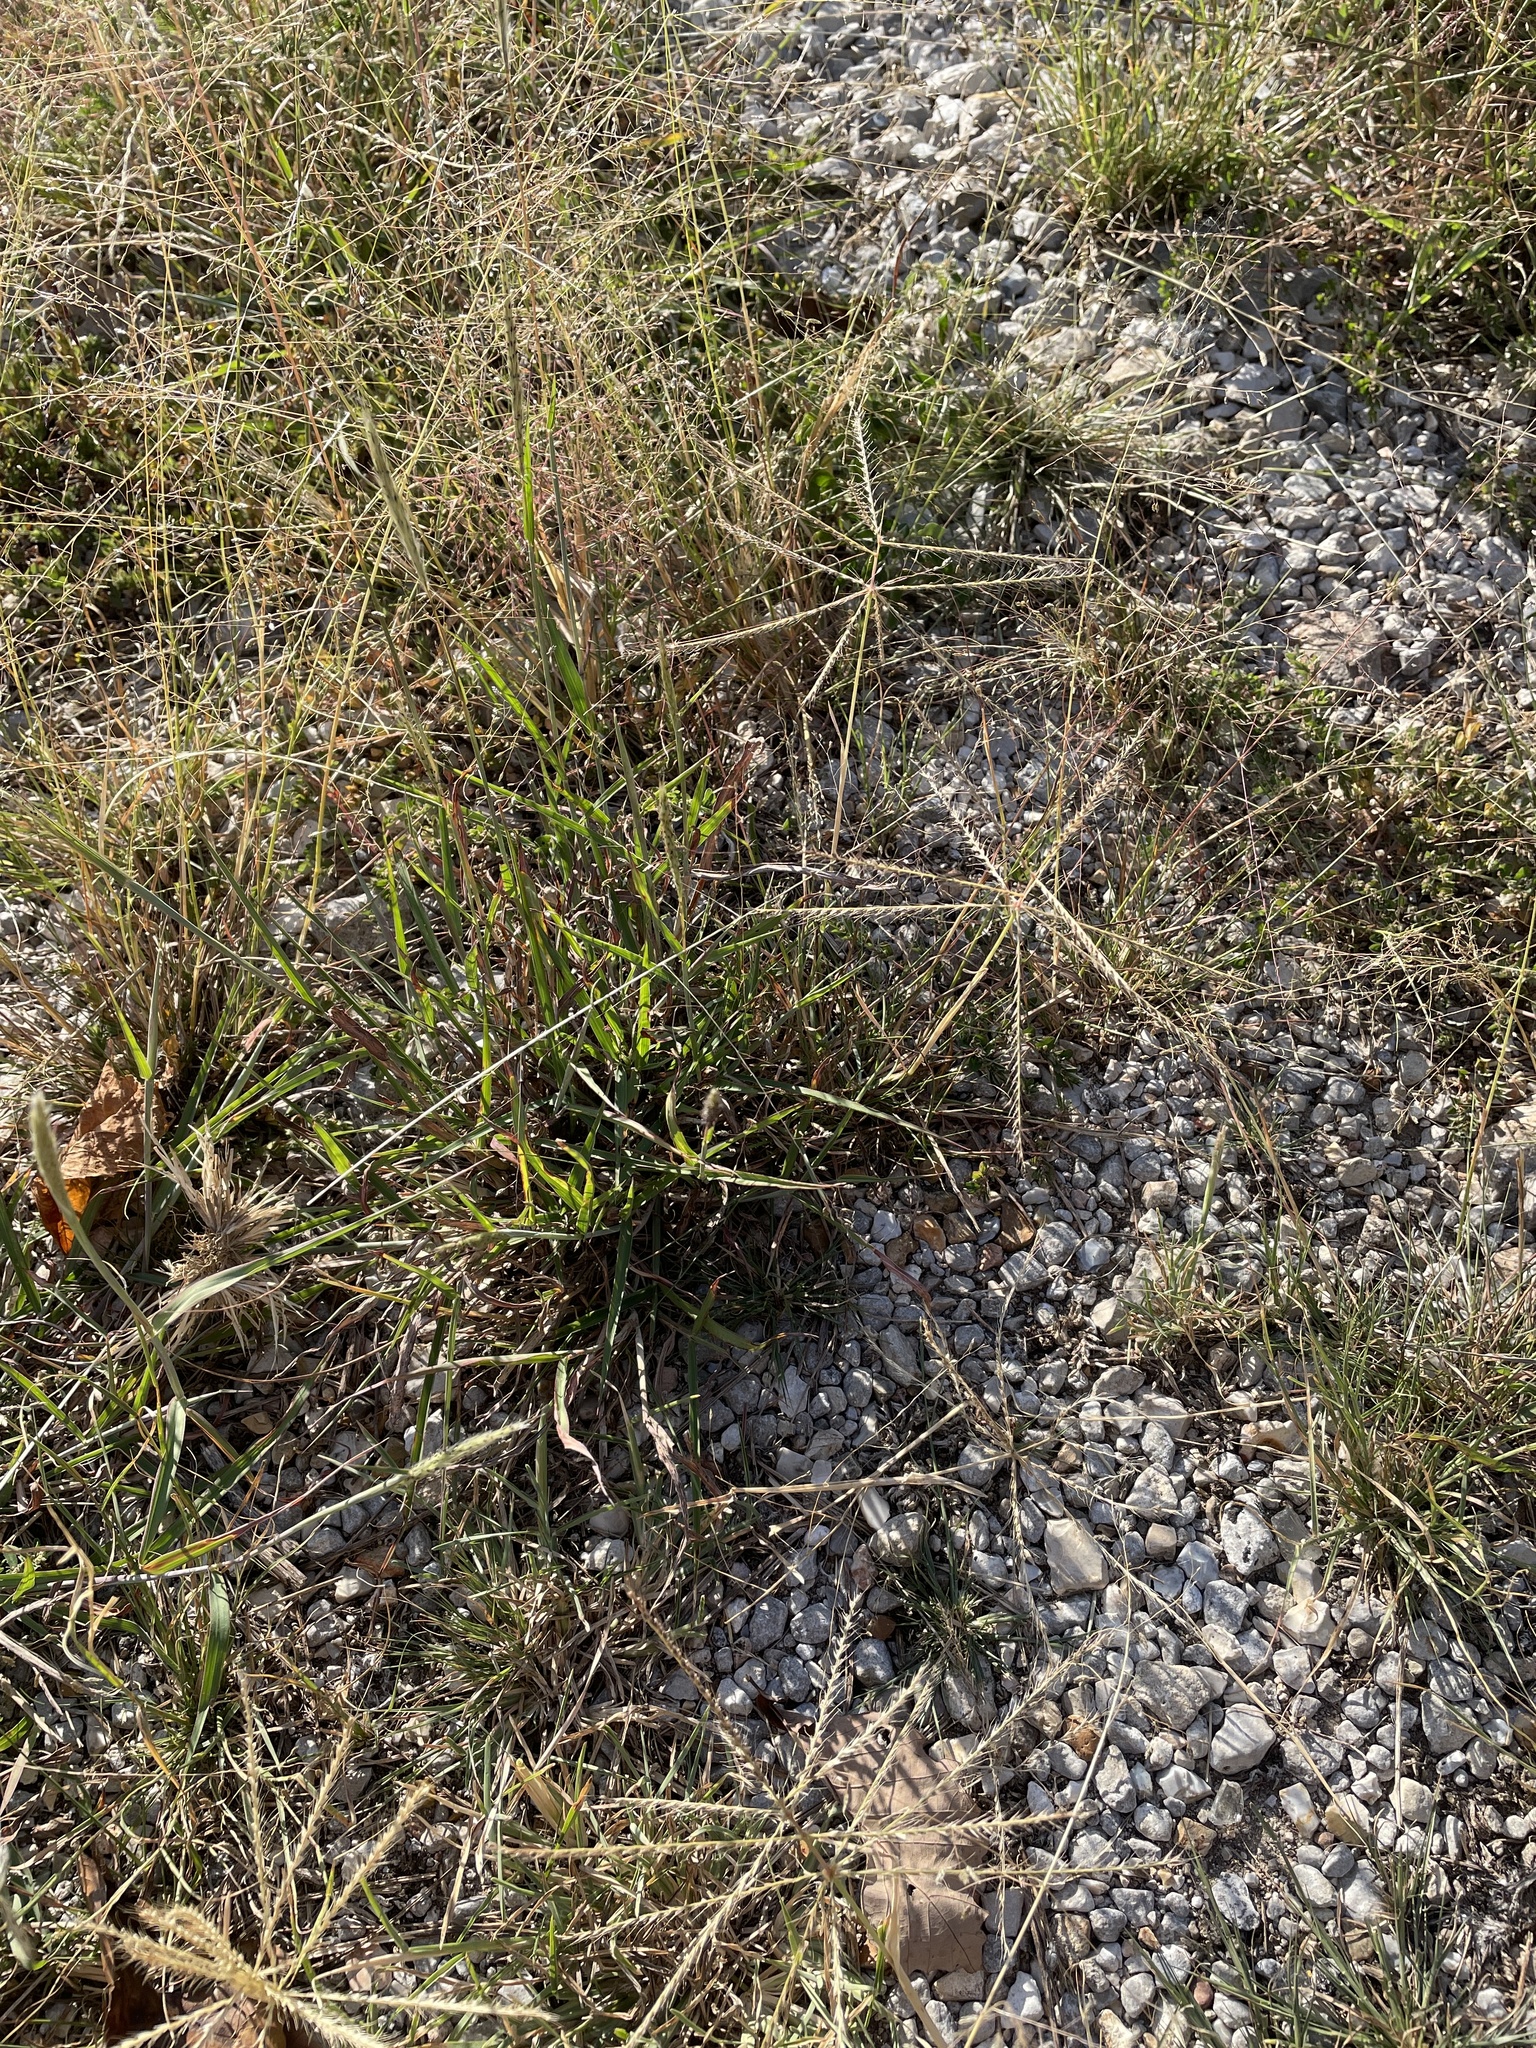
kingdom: Plantae
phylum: Tracheophyta
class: Liliopsida
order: Poales
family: Poaceae
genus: Chloris
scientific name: Chloris verticillata
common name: Tumble windmill grass
